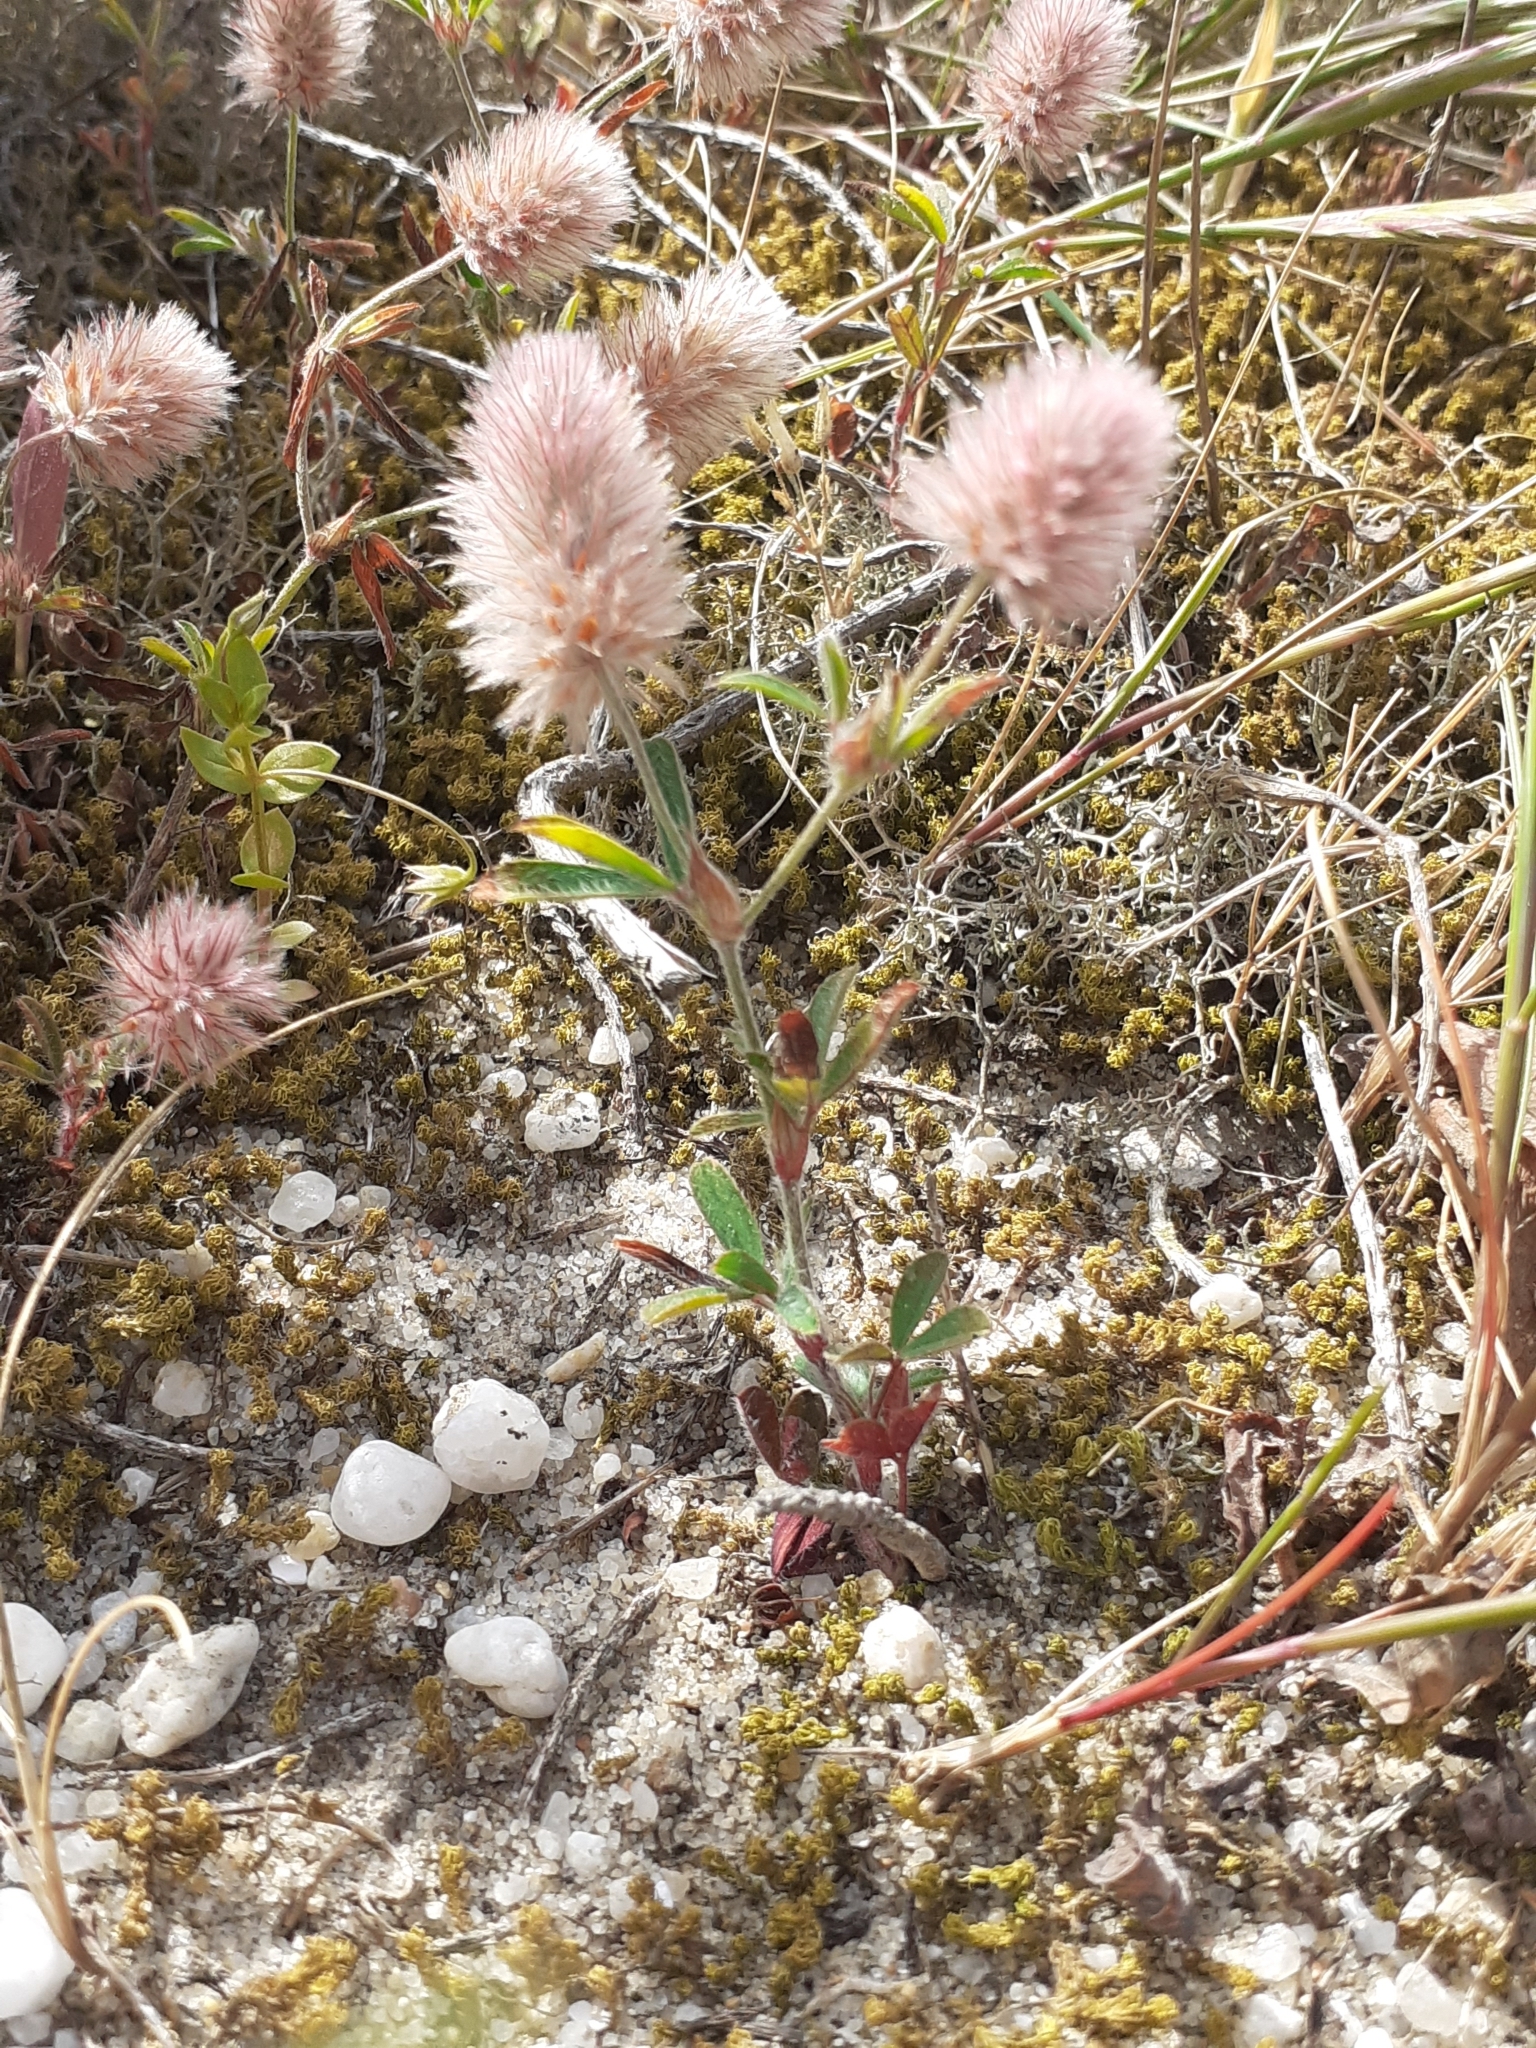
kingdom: Plantae
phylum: Tracheophyta
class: Magnoliopsida
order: Fabales
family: Fabaceae
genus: Trifolium
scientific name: Trifolium arvense
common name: Hare's-foot clover
